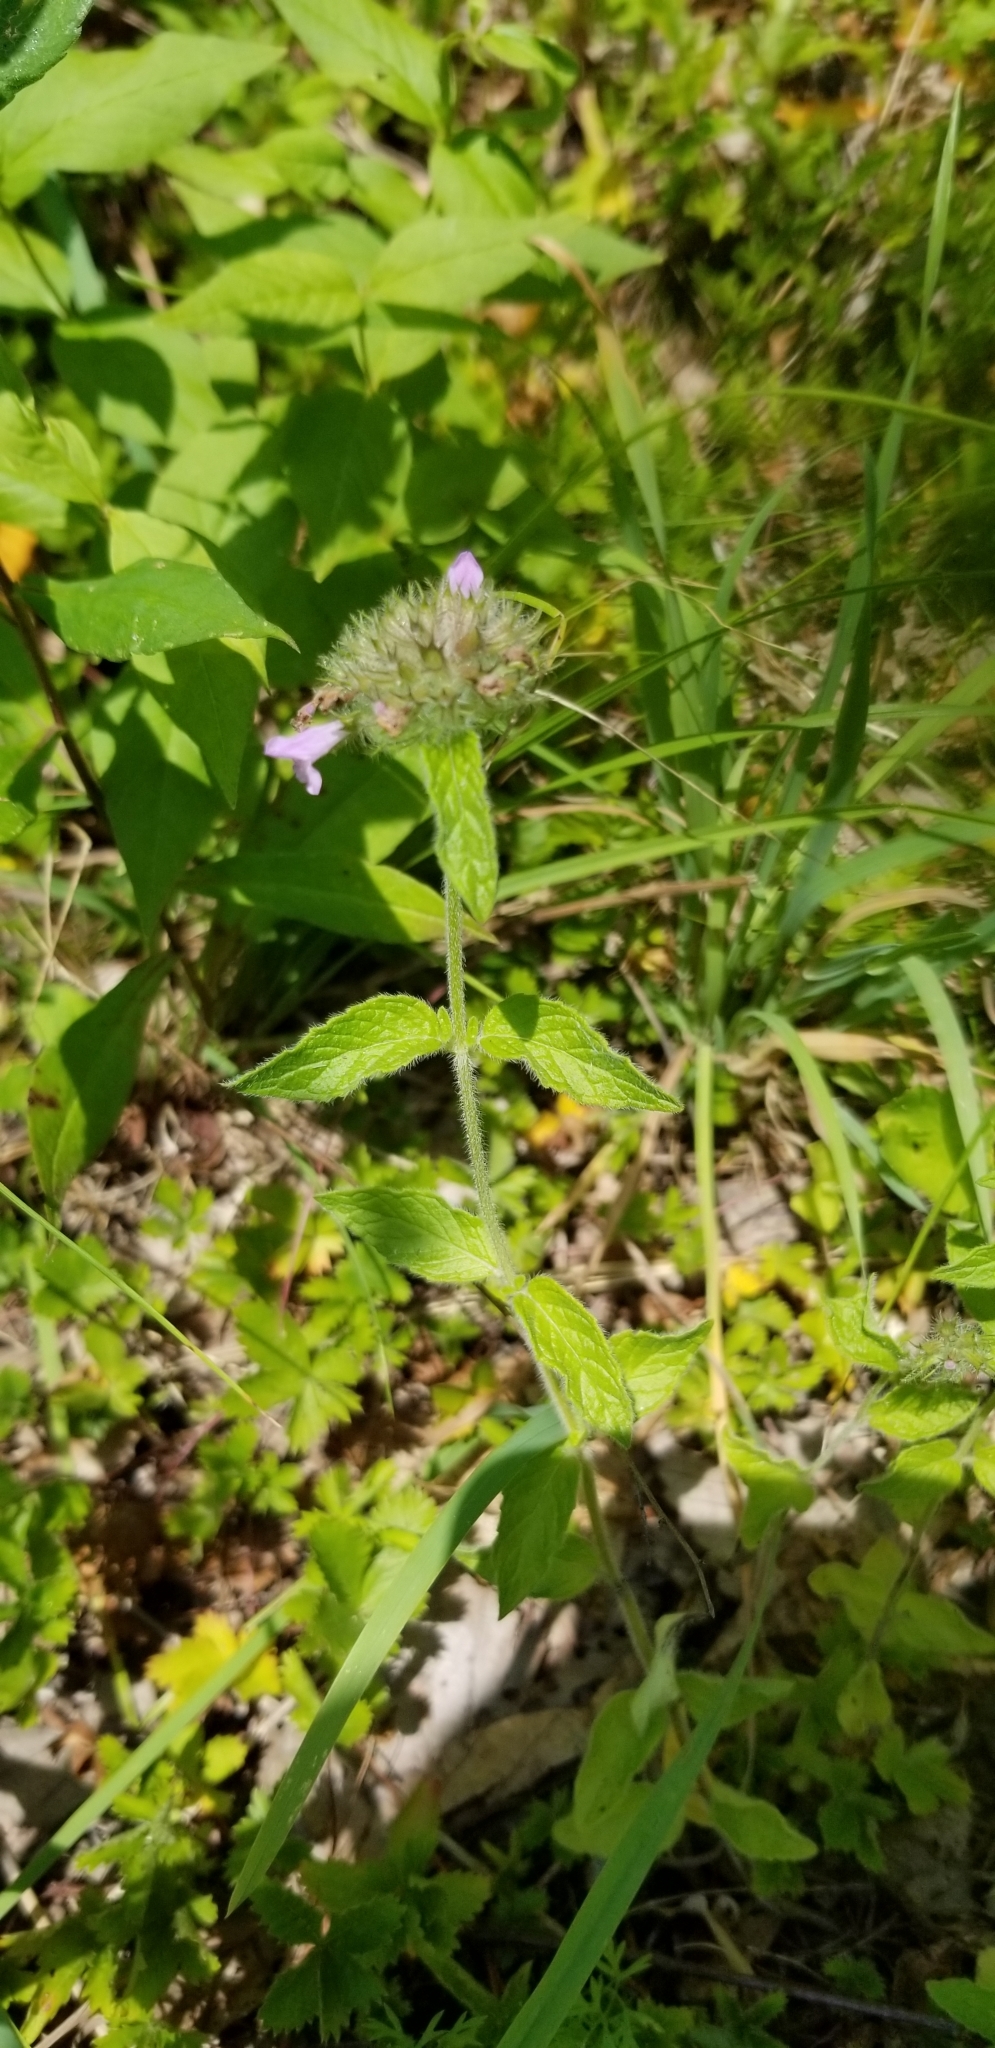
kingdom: Plantae
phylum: Tracheophyta
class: Magnoliopsida
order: Lamiales
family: Lamiaceae
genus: Clinopodium
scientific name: Clinopodium vulgare
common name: Wild basil
